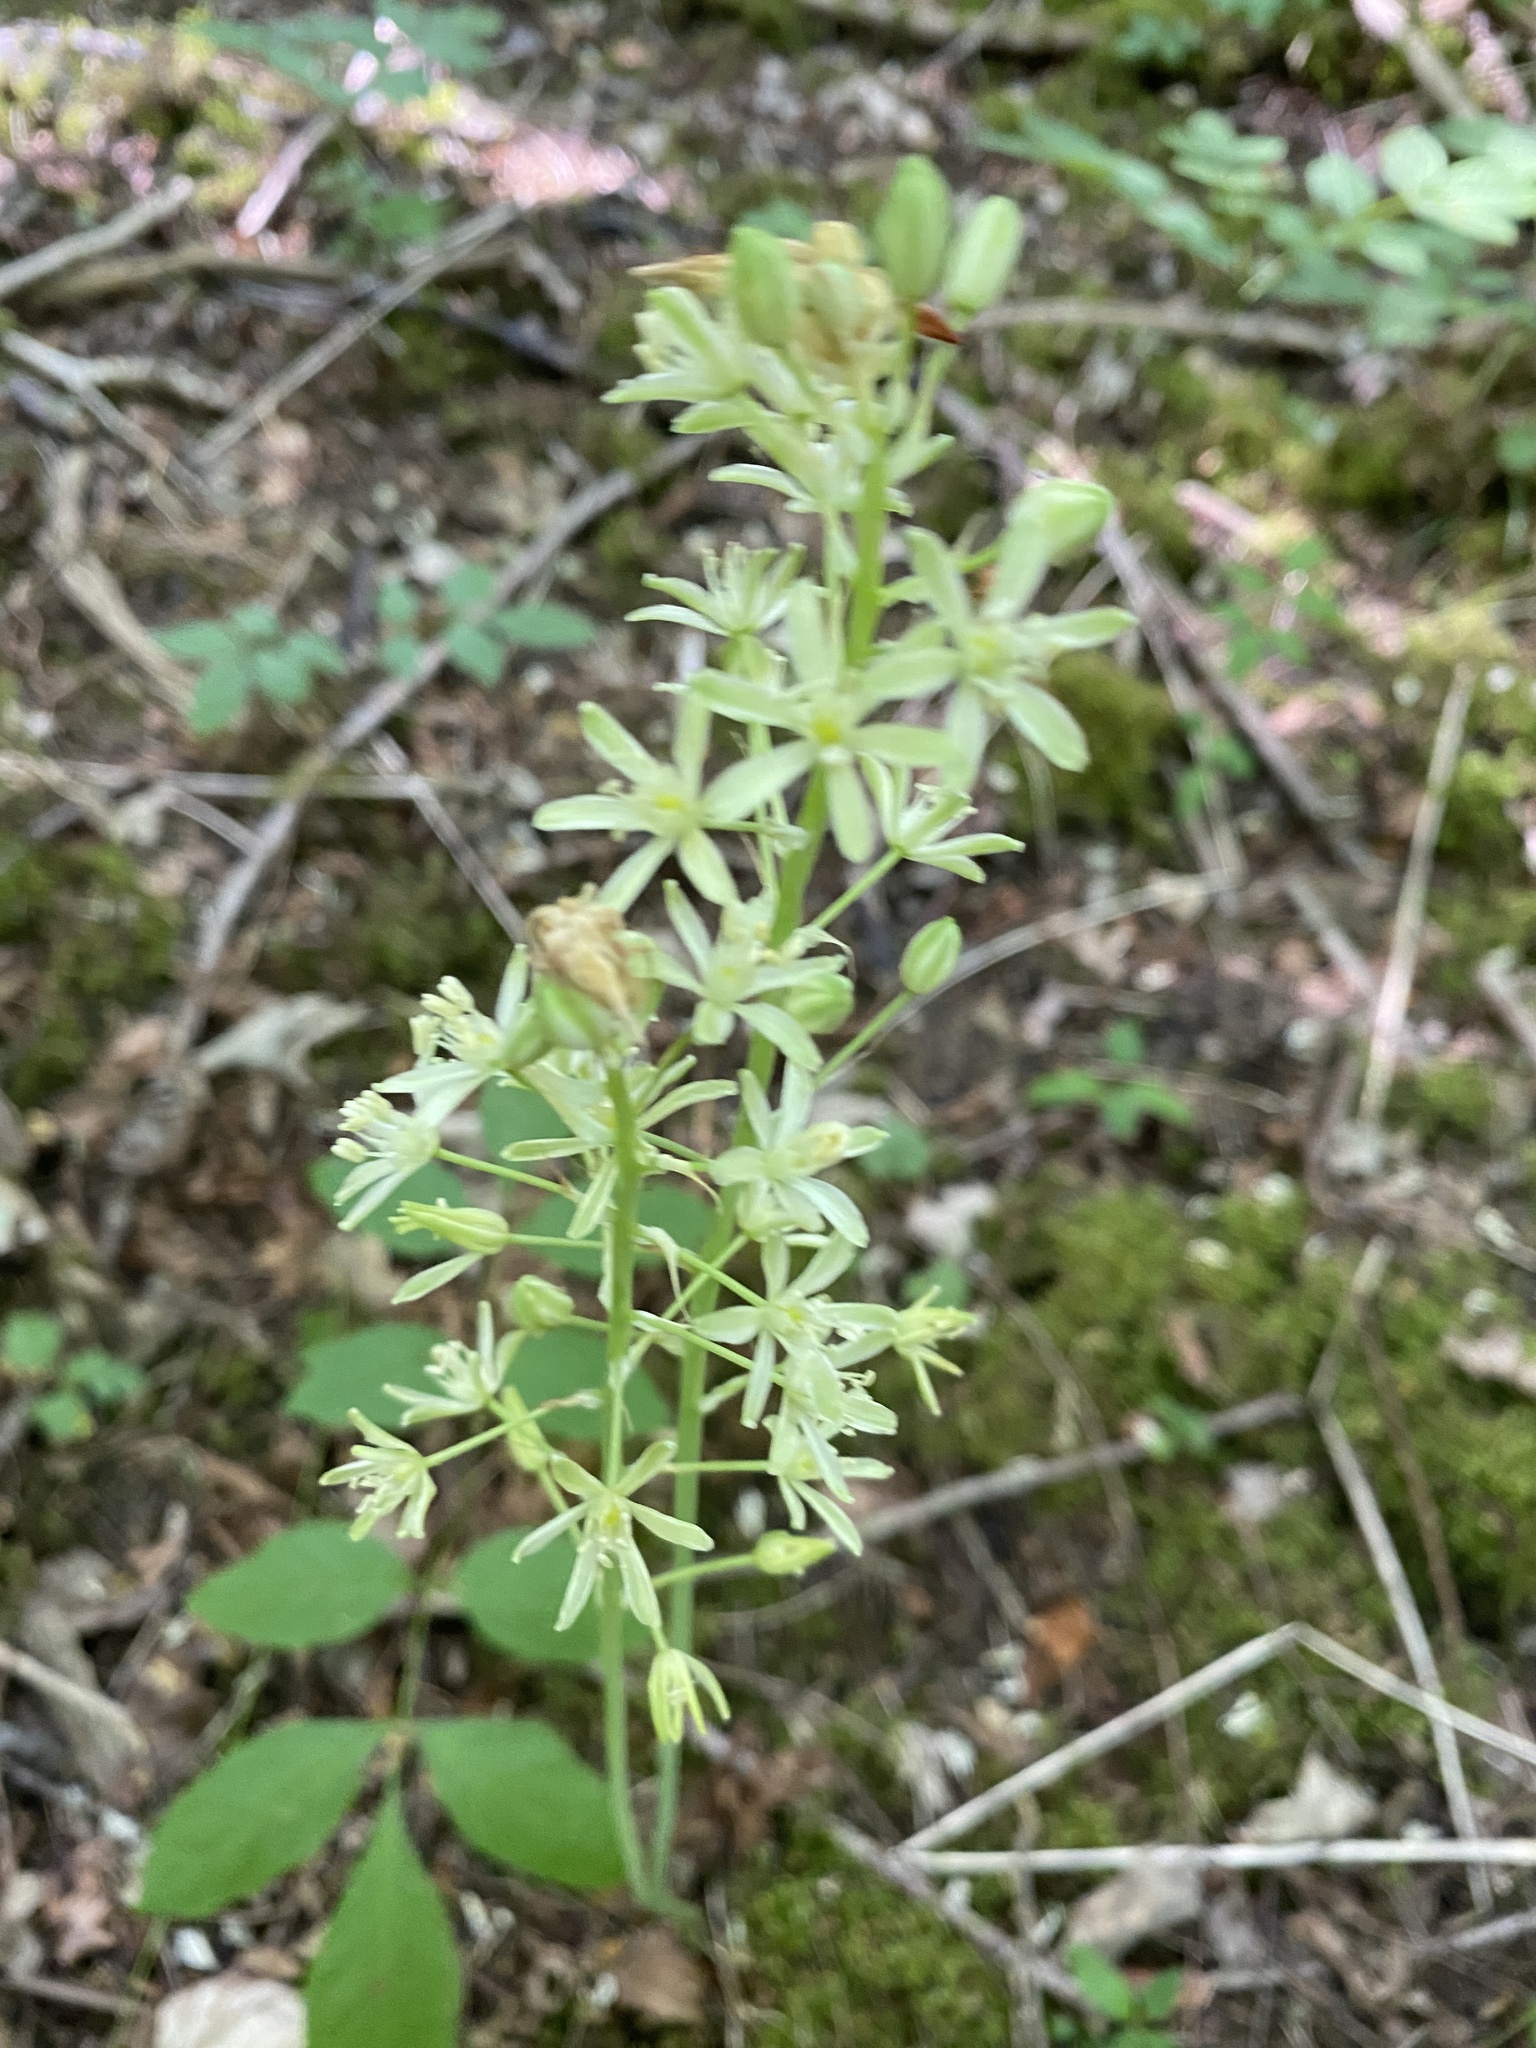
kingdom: Plantae
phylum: Tracheophyta
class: Liliopsida
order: Asparagales
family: Asparagaceae
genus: Ornithogalum
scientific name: Ornithogalum pyrenaicum
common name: Spiked star-of-bethlehem
